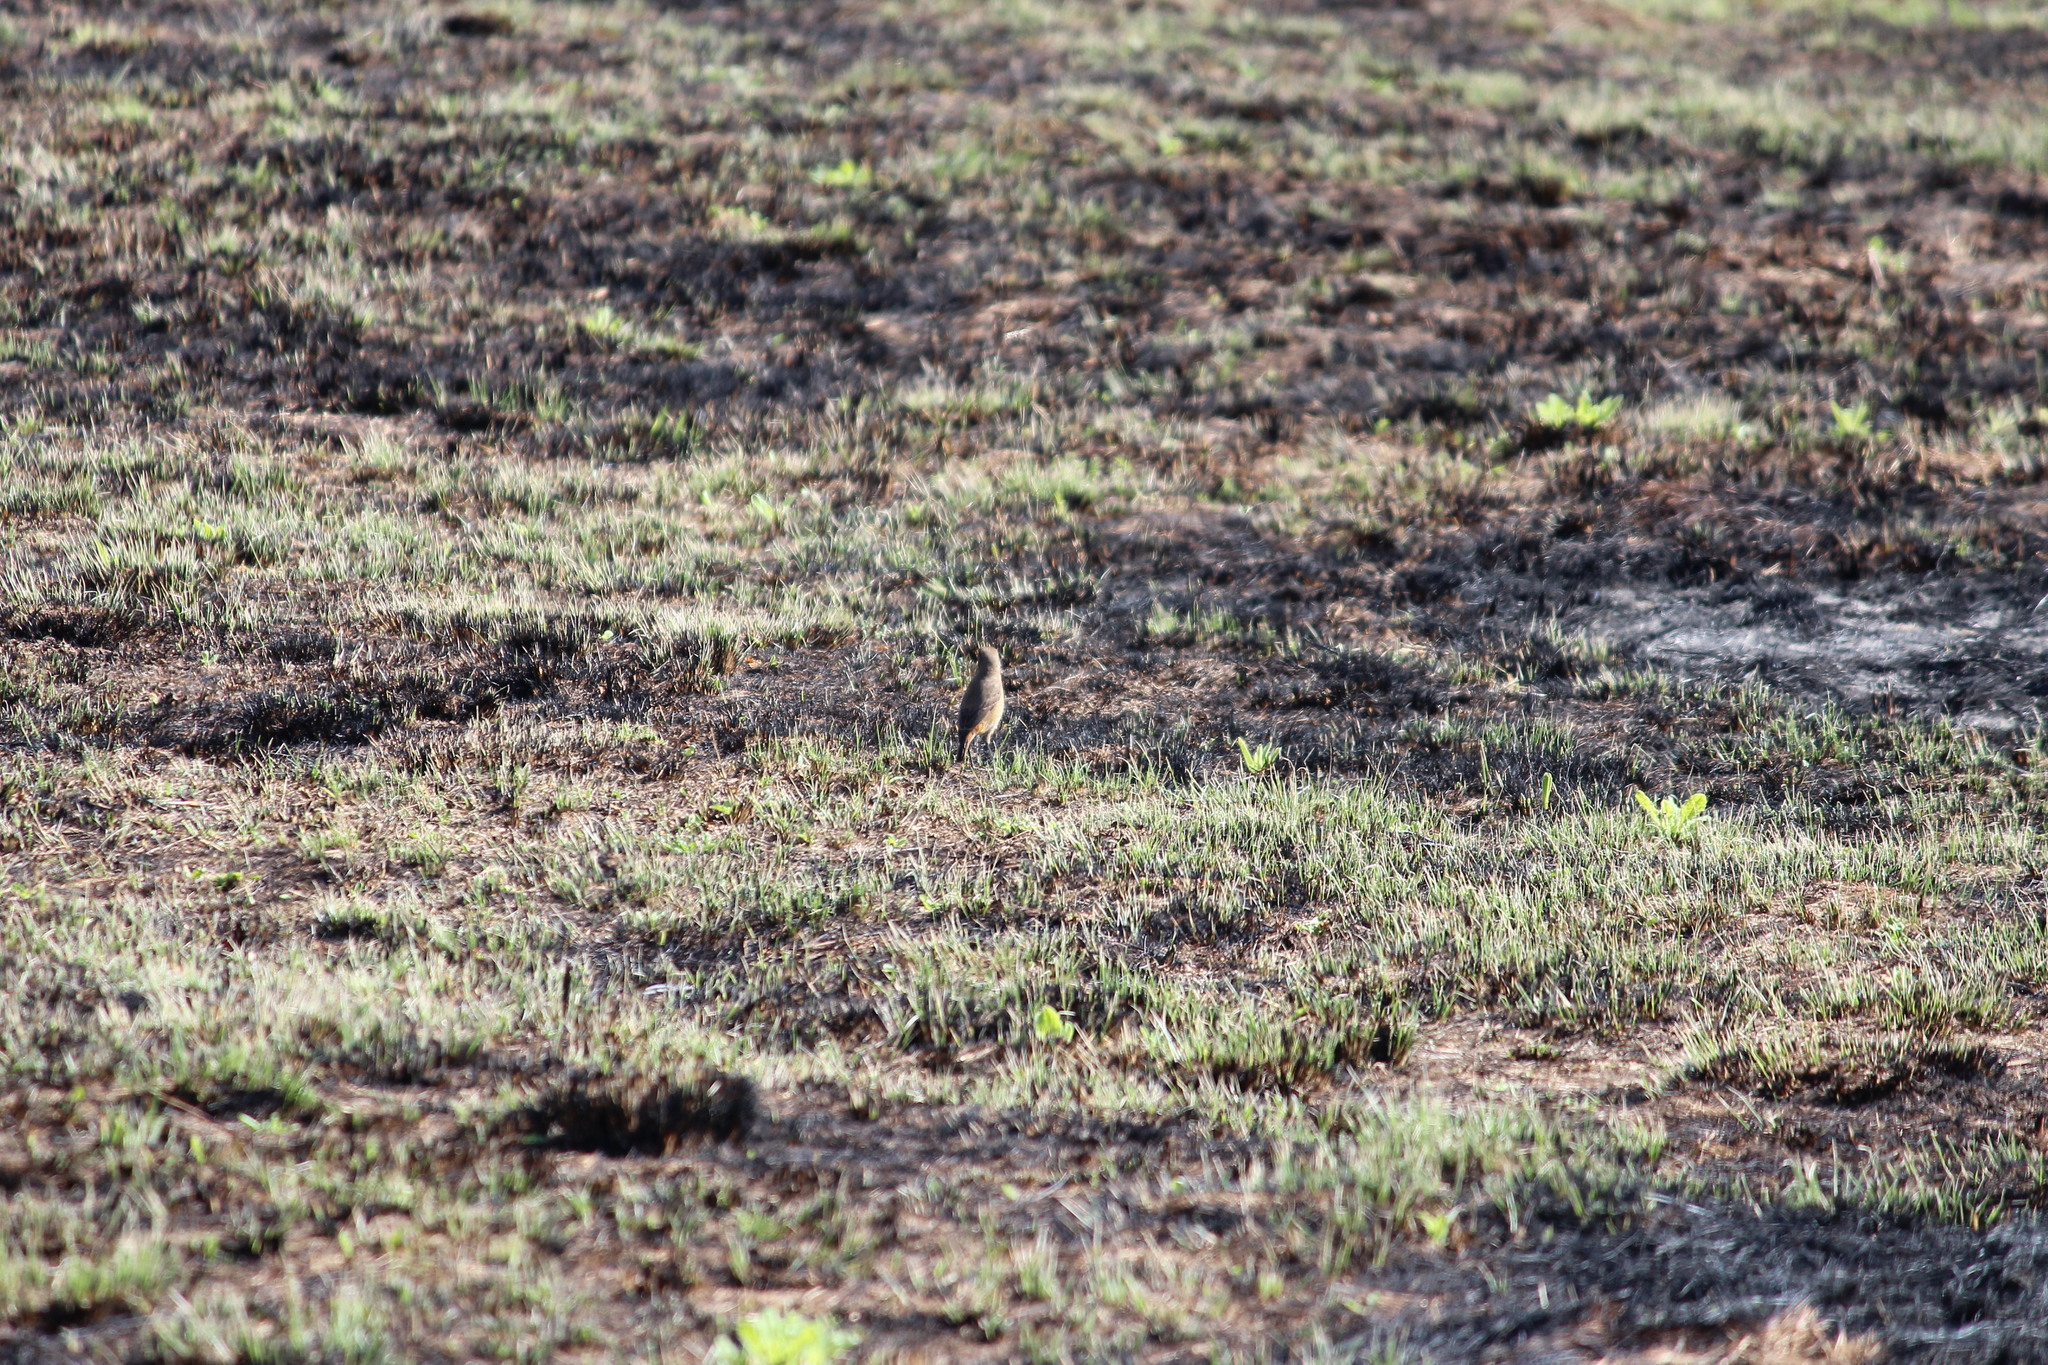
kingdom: Animalia
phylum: Chordata
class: Aves
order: Passeriformes
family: Muscicapidae
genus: Oenanthe
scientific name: Oenanthe familiaris
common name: Familiar chat
